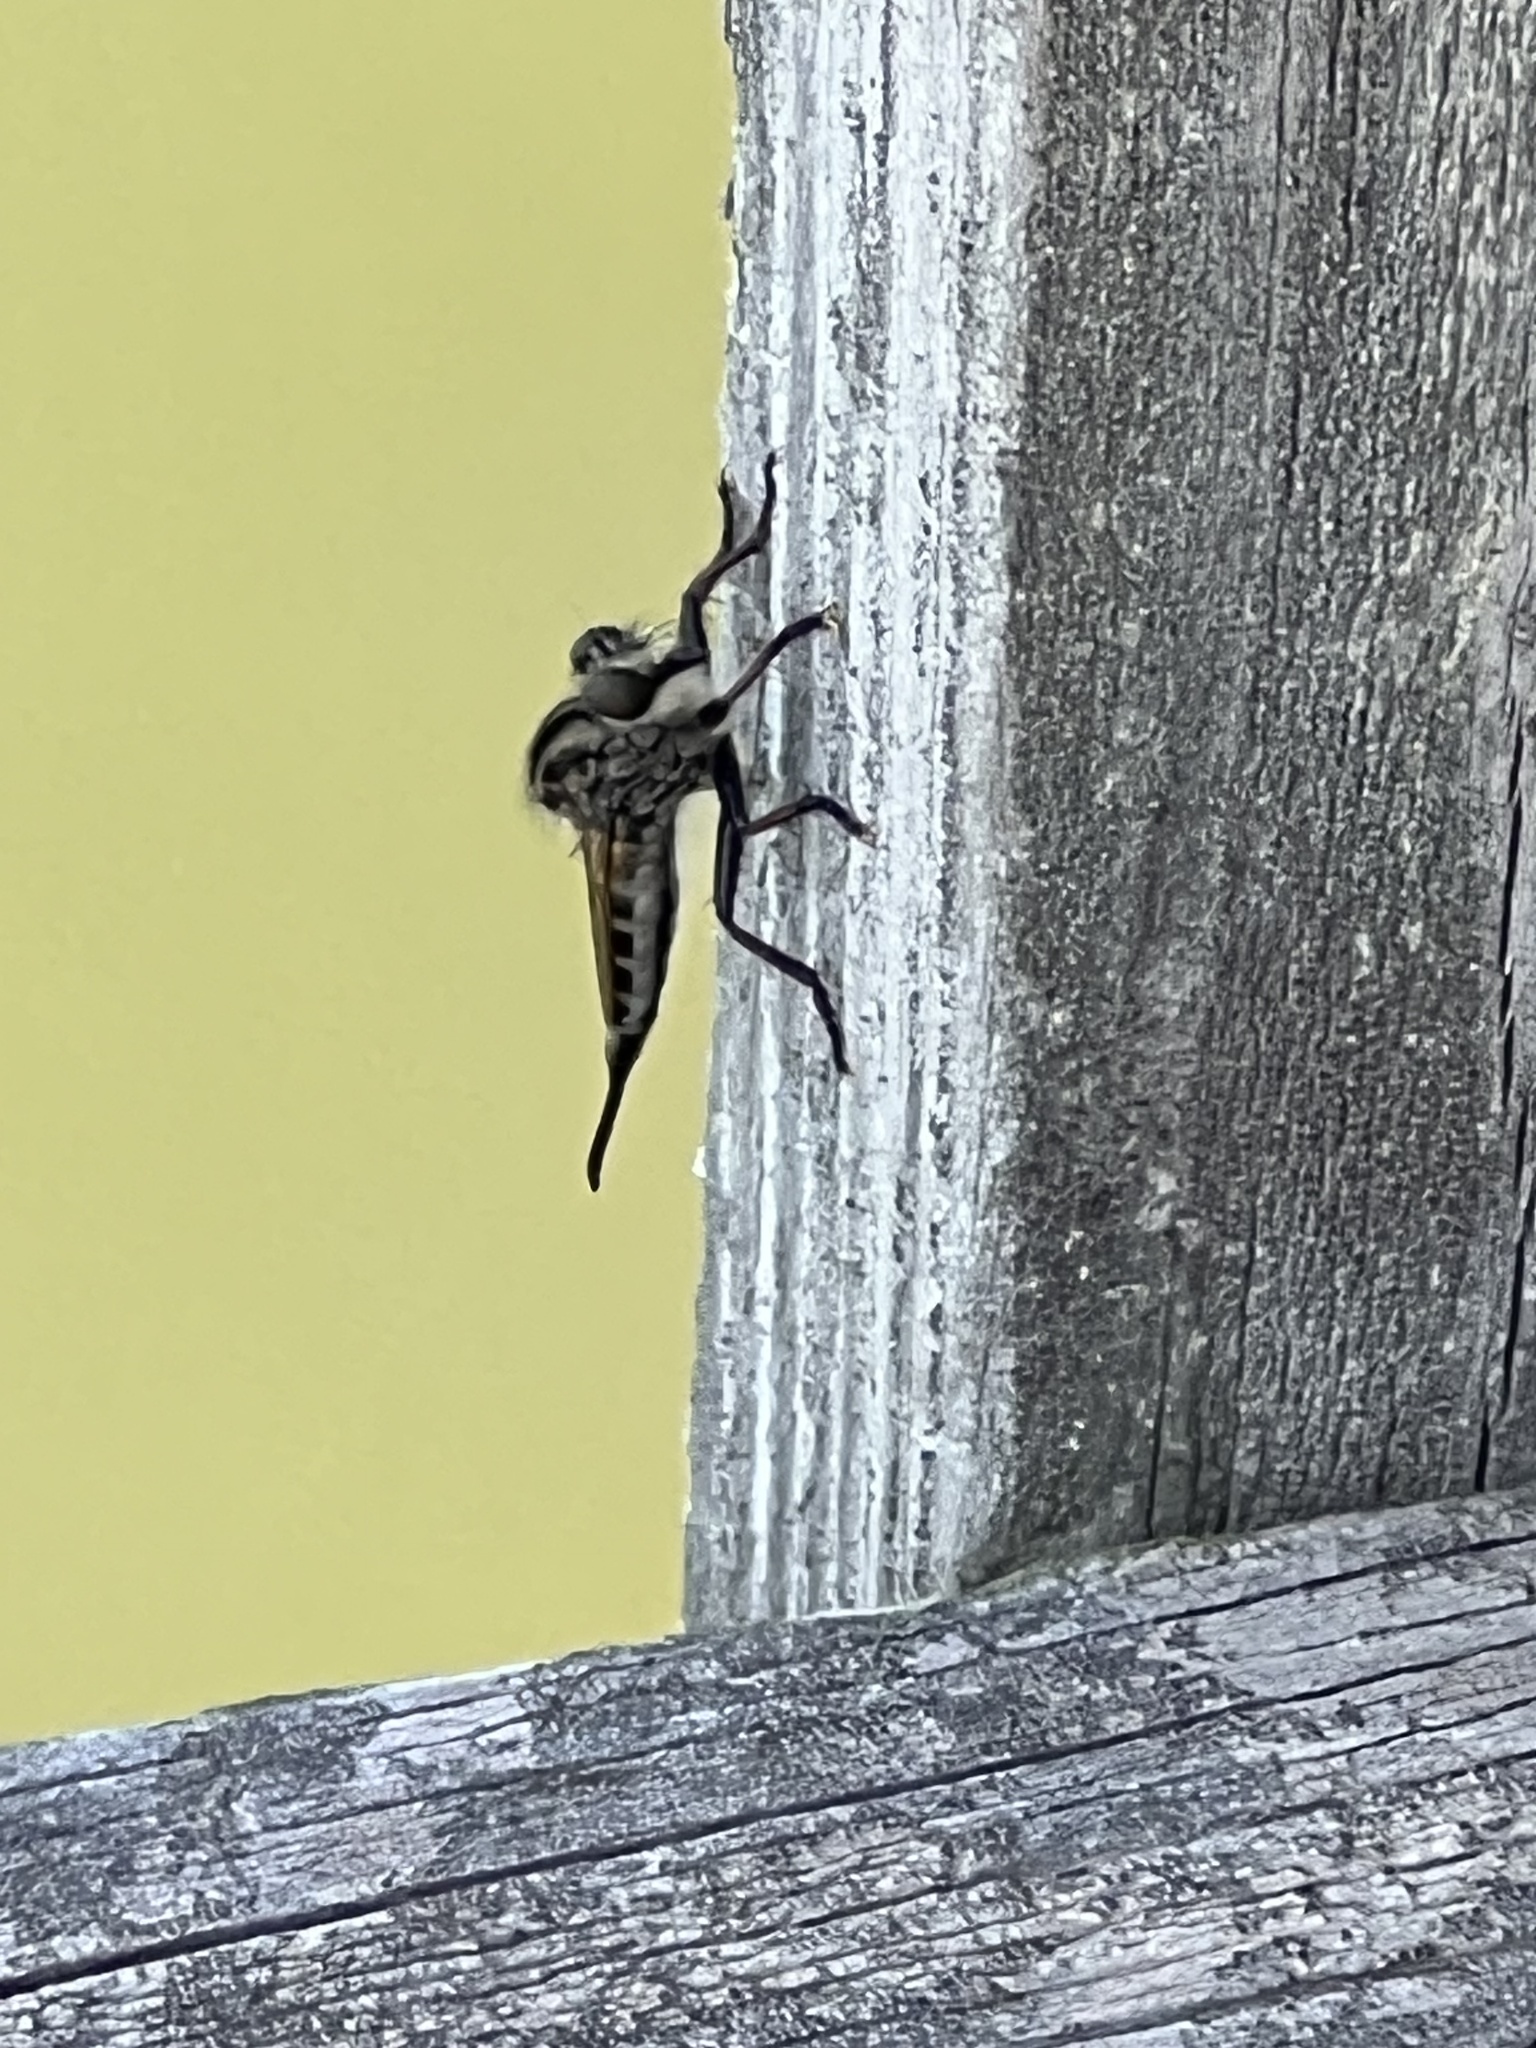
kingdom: Animalia
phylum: Arthropoda
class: Insecta
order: Diptera
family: Asilidae
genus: Efferia
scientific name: Efferia aestuans
